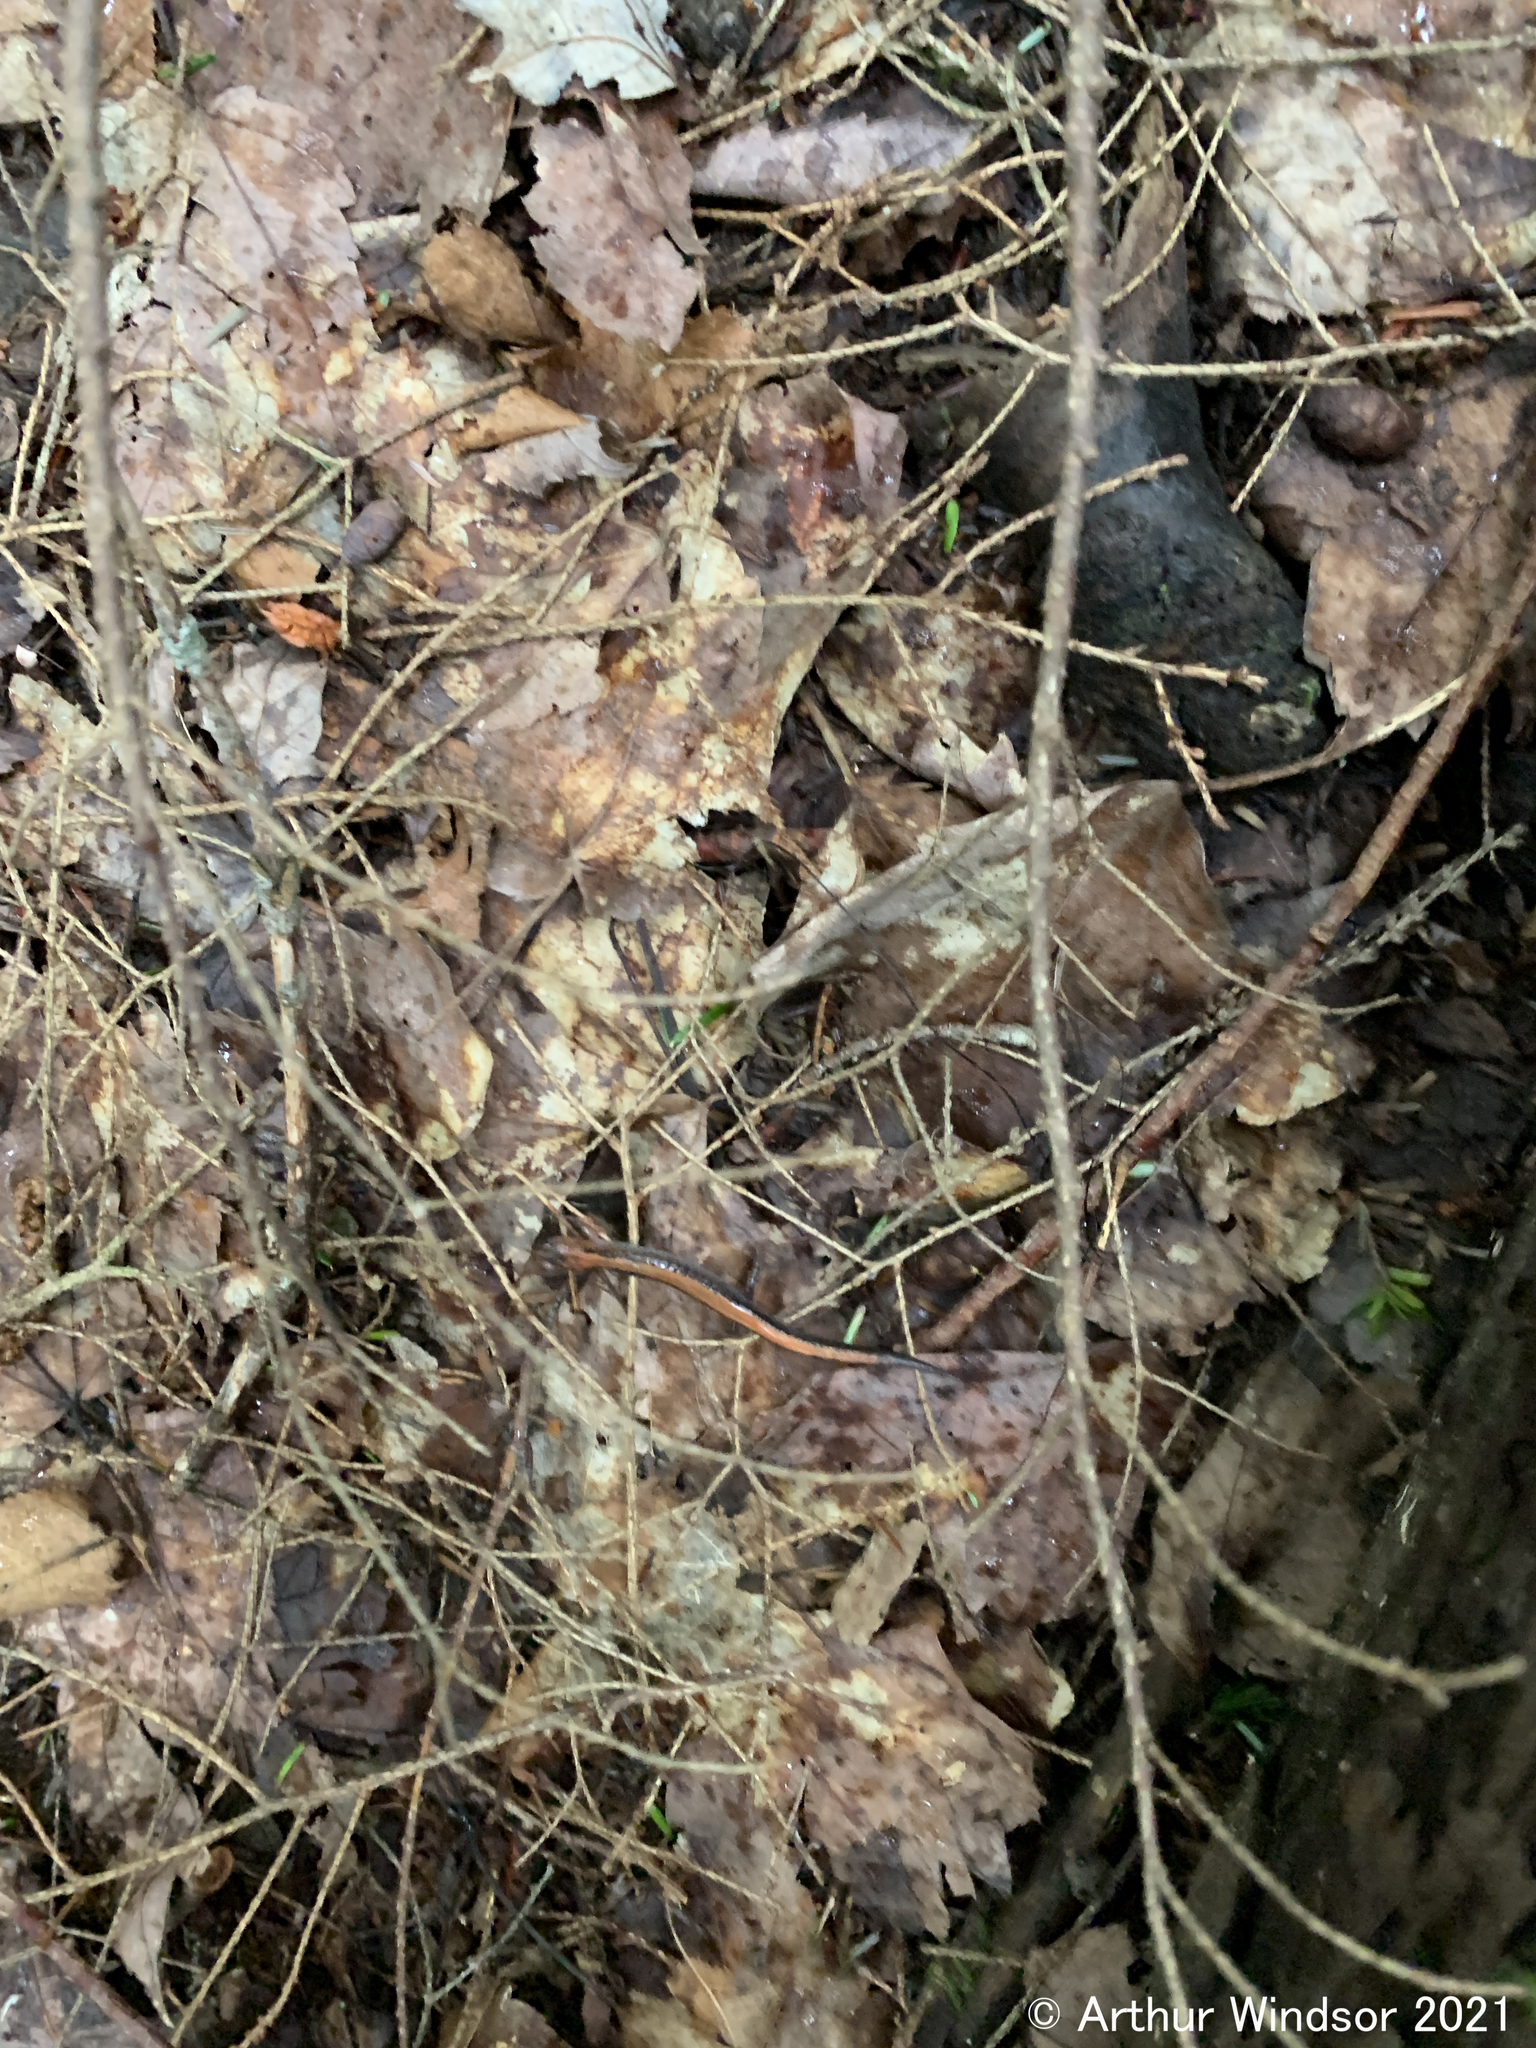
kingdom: Animalia
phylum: Chordata
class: Amphibia
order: Caudata
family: Plethodontidae
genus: Plethodon
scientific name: Plethodon cinereus
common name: Redback salamander
